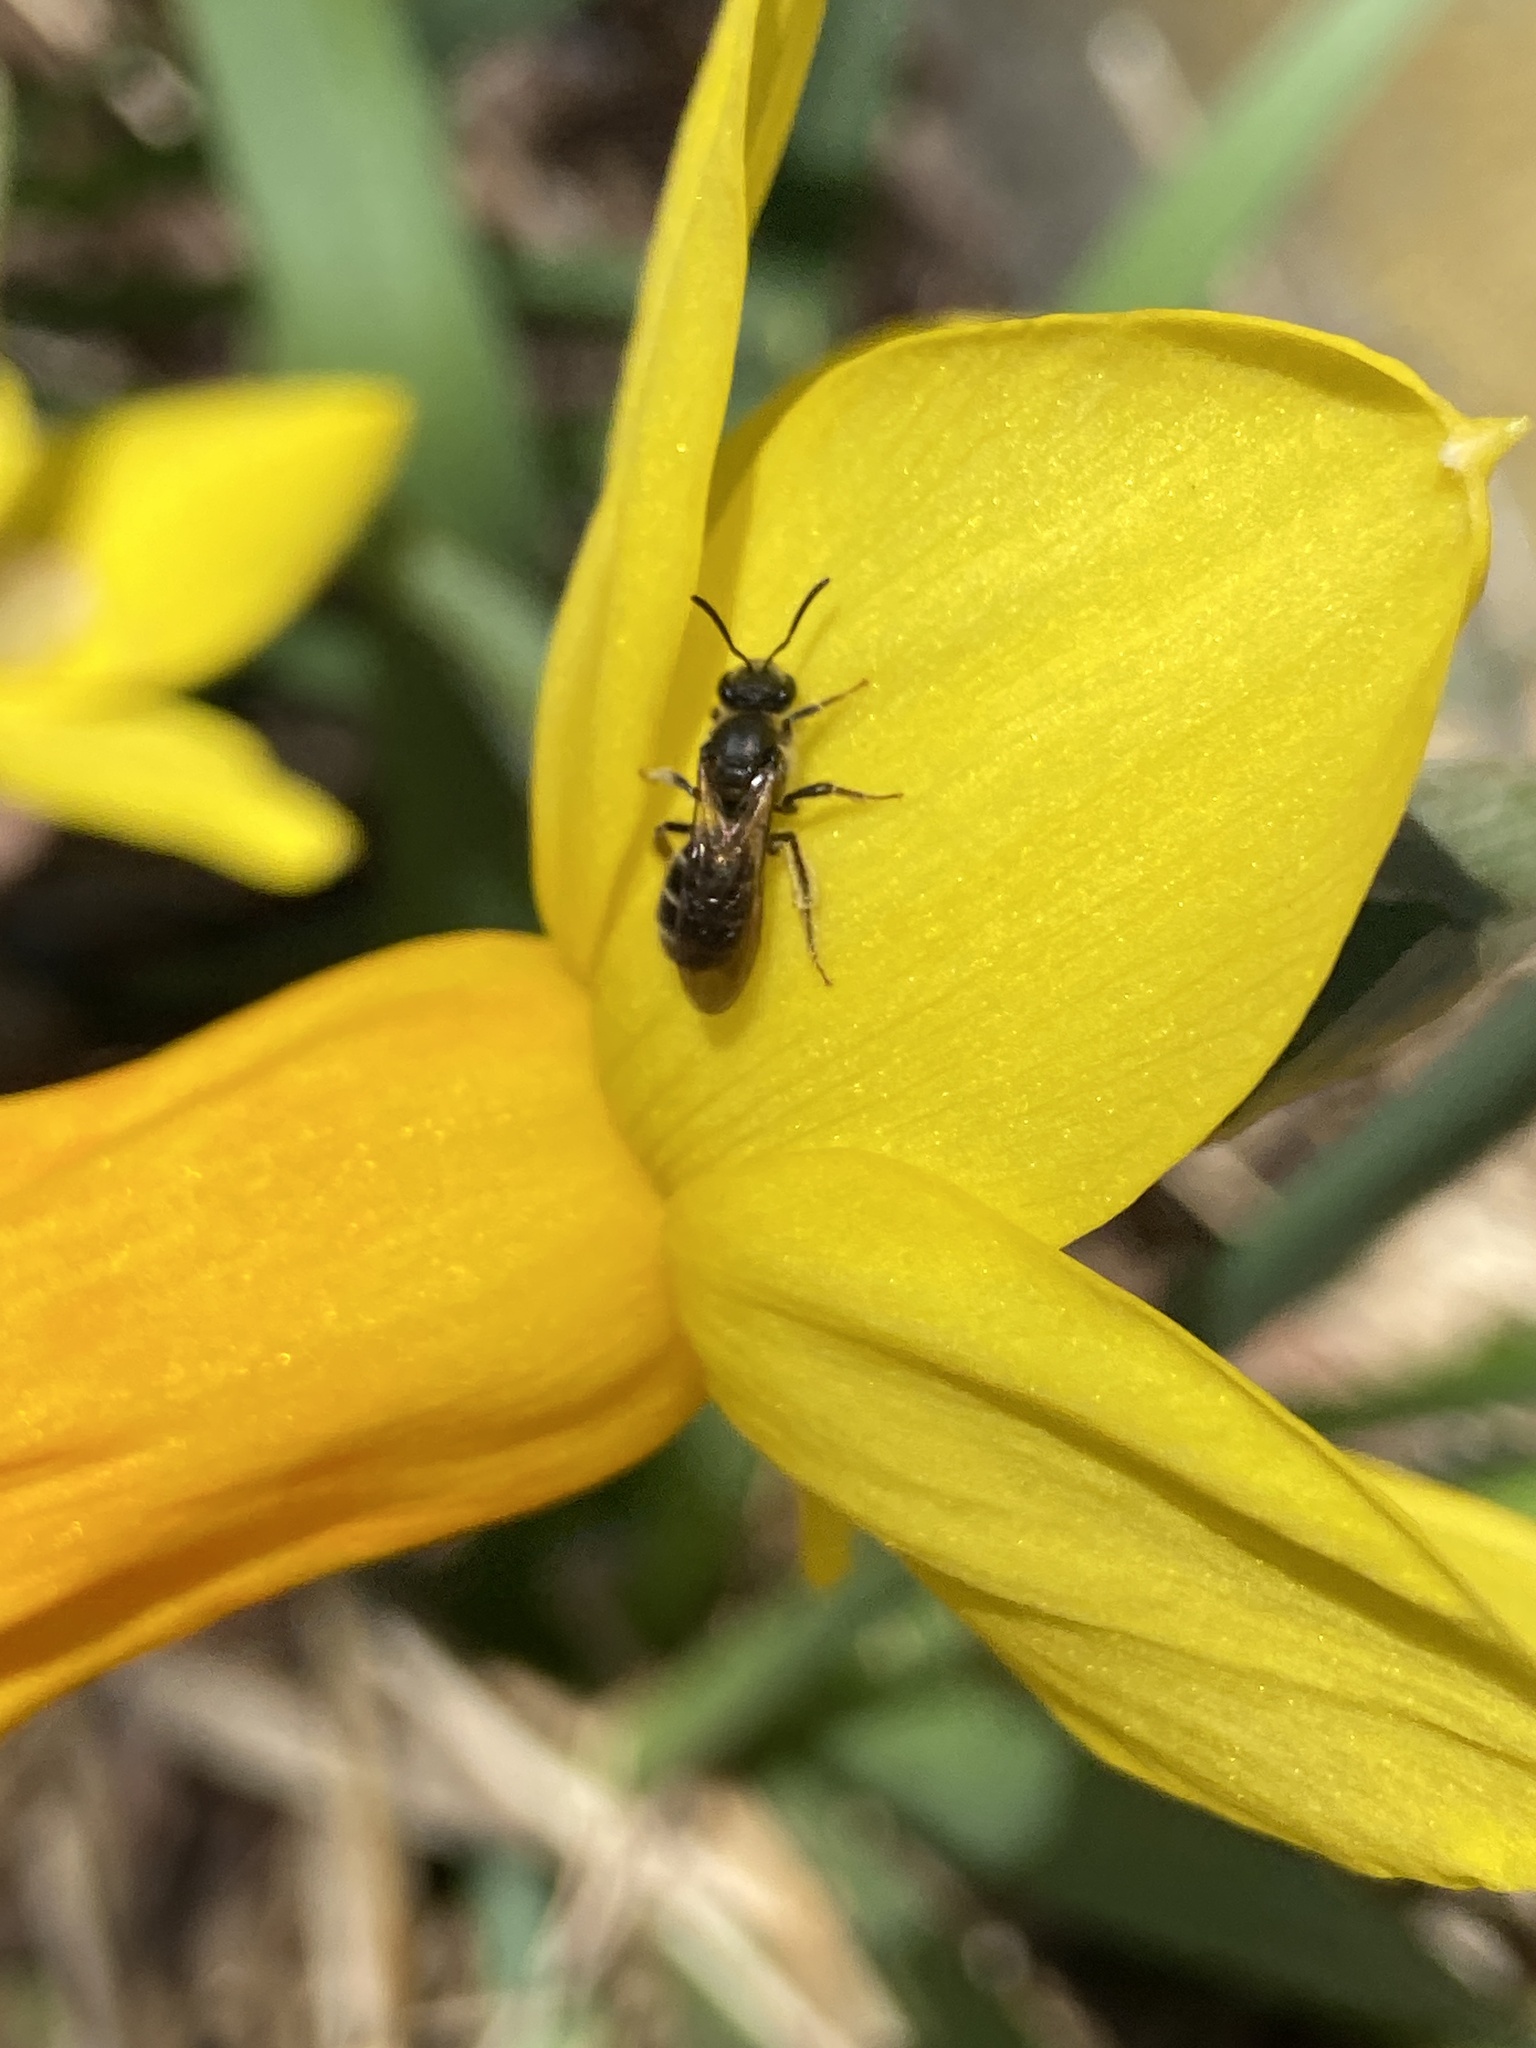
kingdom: Animalia
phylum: Arthropoda
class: Insecta
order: Hymenoptera
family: Halictidae
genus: Lasioglossum
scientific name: Lasioglossum quebecense
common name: Quebec sweat bee
